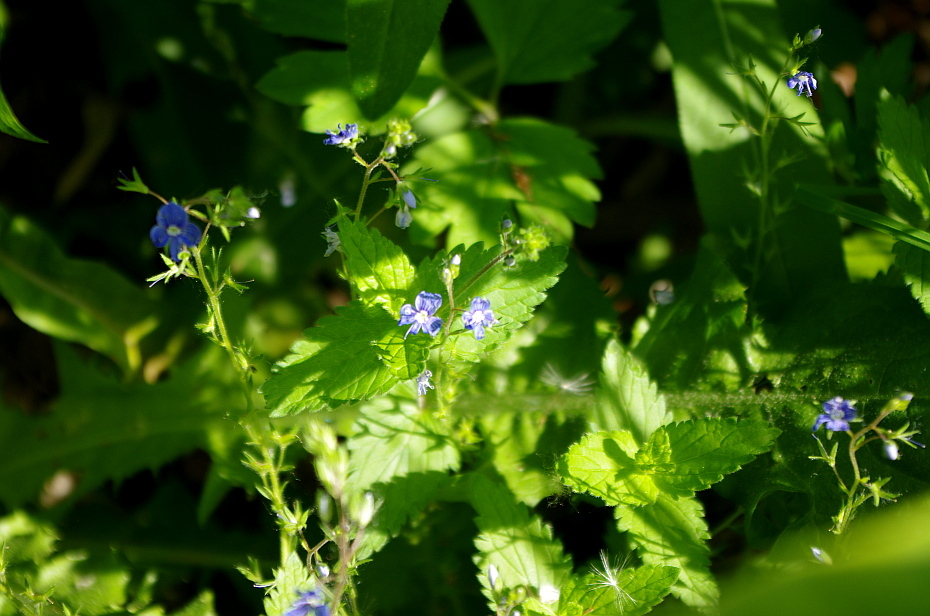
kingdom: Plantae
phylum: Tracheophyta
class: Magnoliopsida
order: Lamiales
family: Plantaginaceae
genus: Veronica
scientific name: Veronica chamaedrys
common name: Germander speedwell
